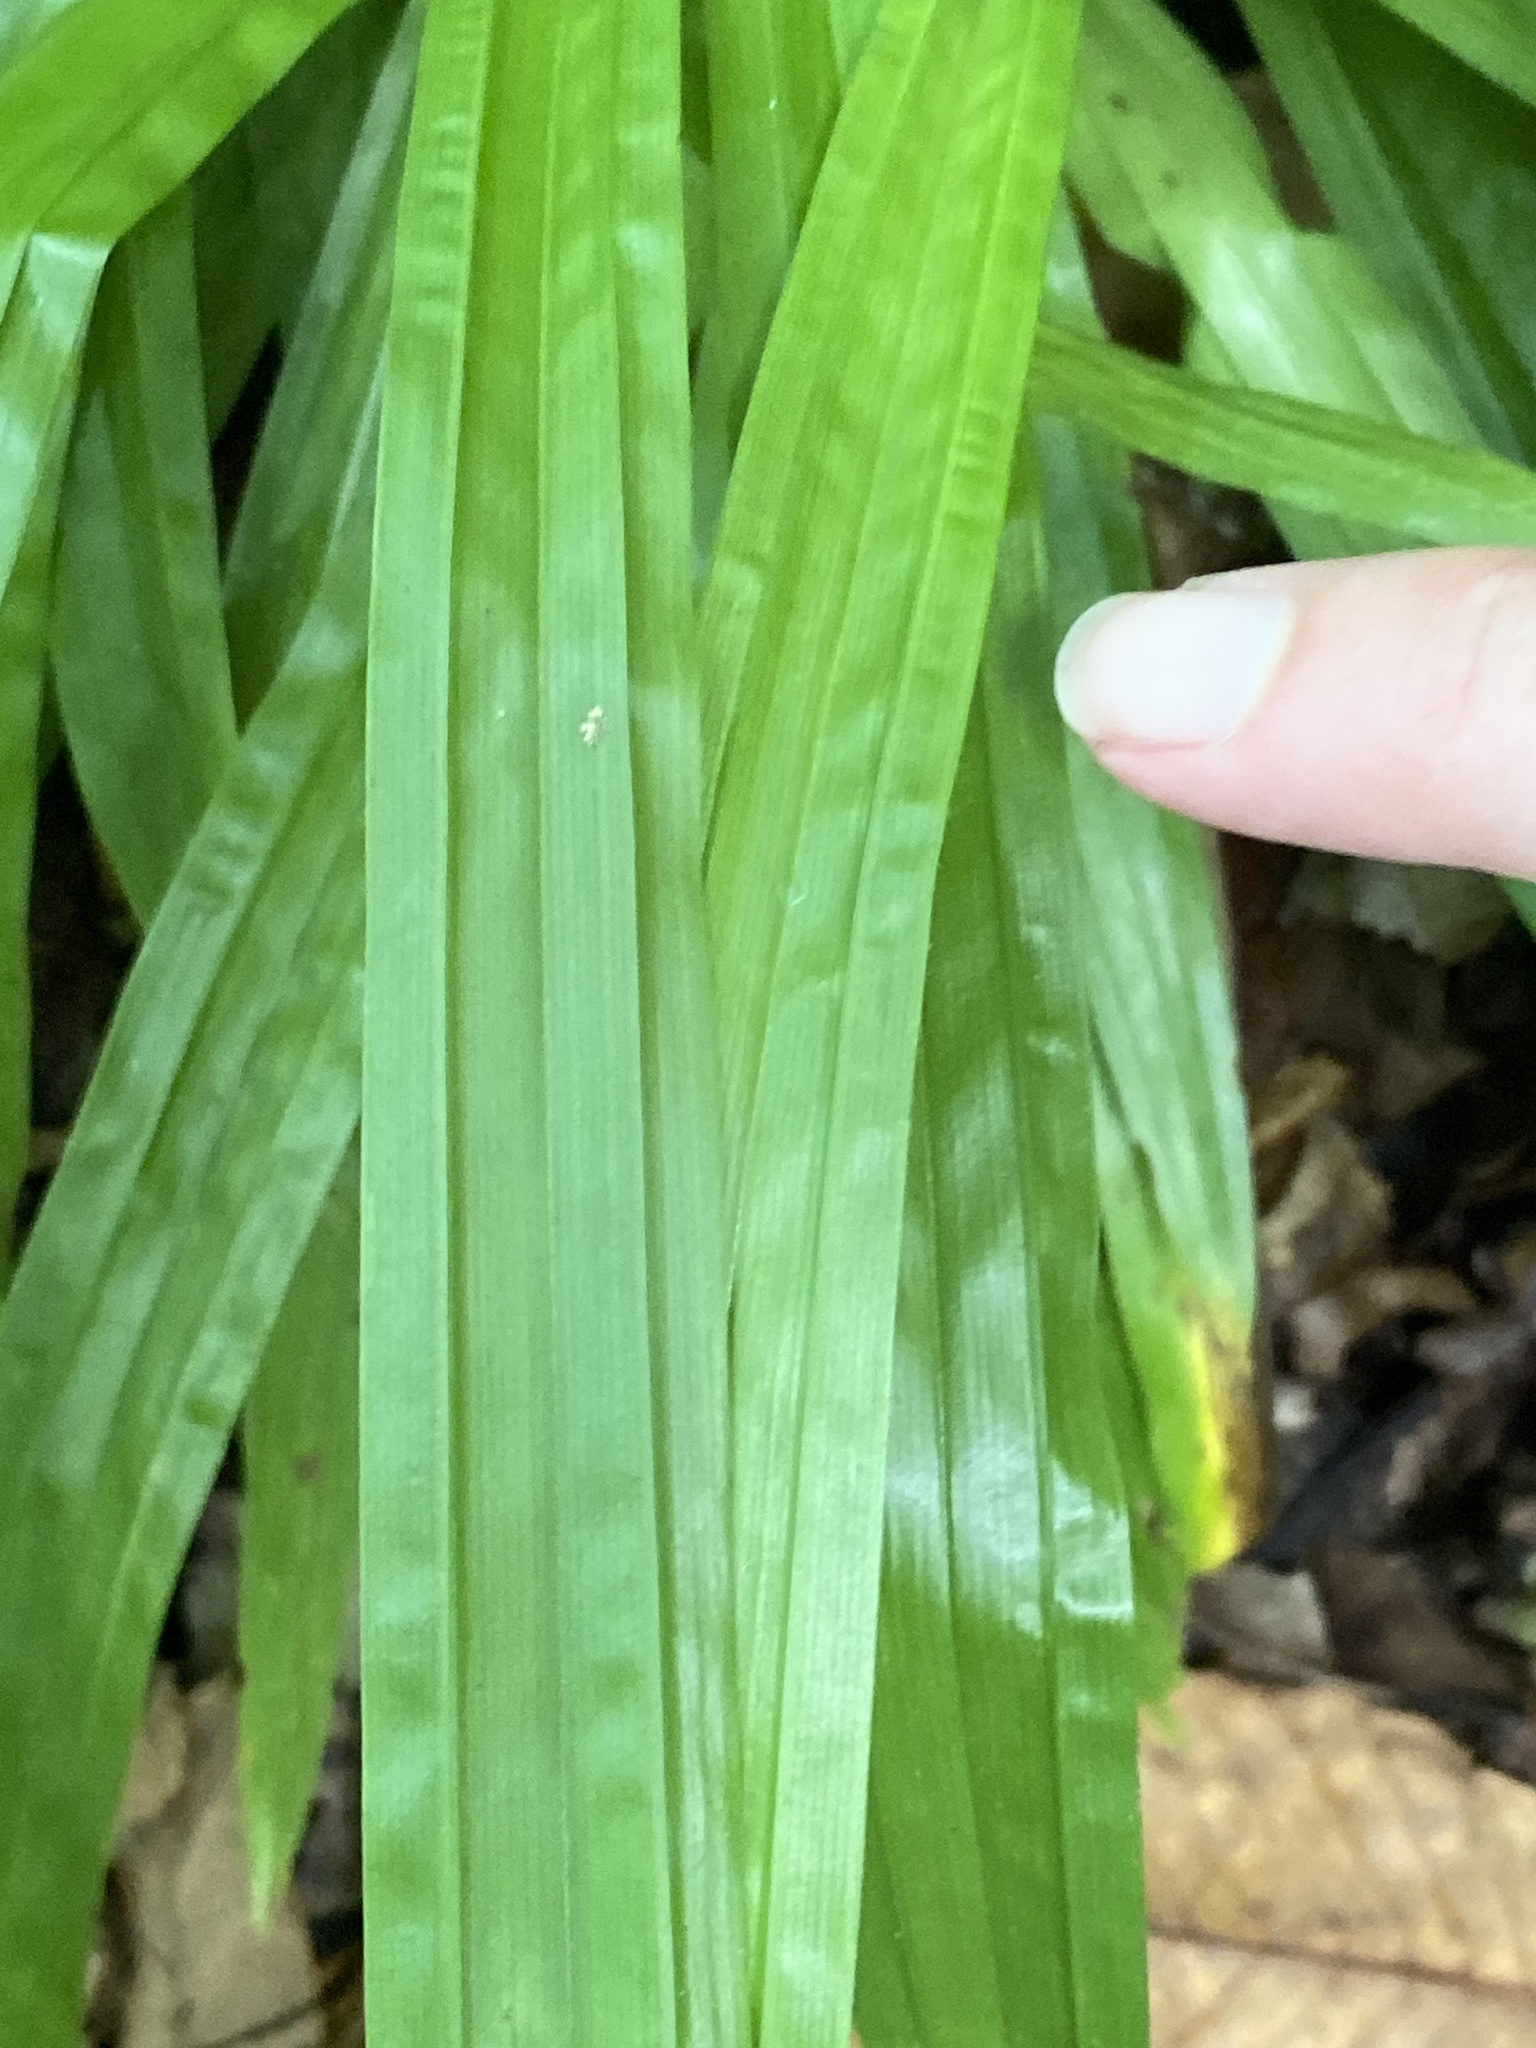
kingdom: Plantae
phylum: Tracheophyta
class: Liliopsida
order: Poales
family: Cyperaceae
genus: Carex
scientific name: Carex plantaginea
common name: Plantain-leaved sedge
